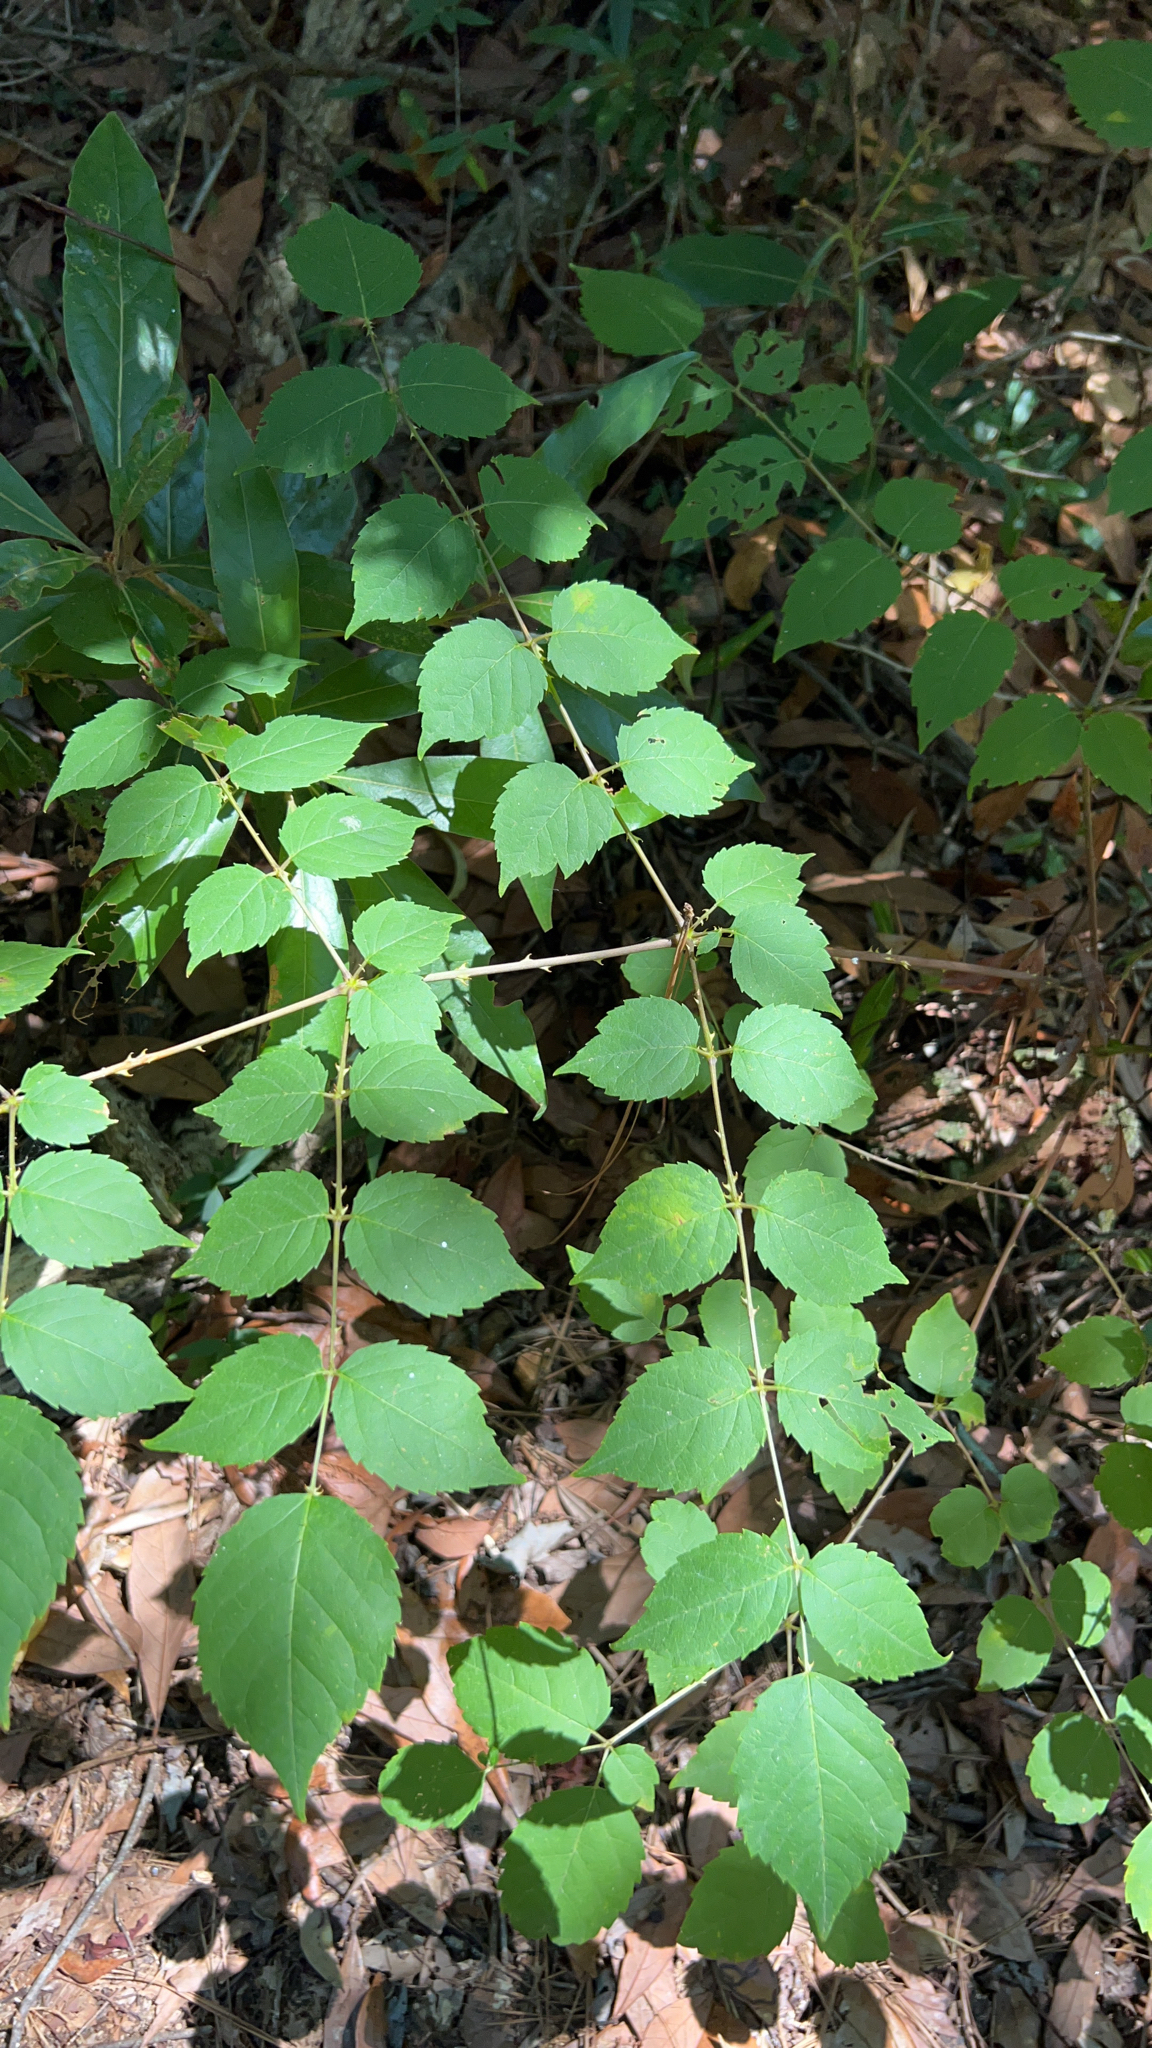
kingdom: Plantae
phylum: Tracheophyta
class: Magnoliopsida
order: Apiales
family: Araliaceae
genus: Aralia
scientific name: Aralia spinosa
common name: Hercules'-club
